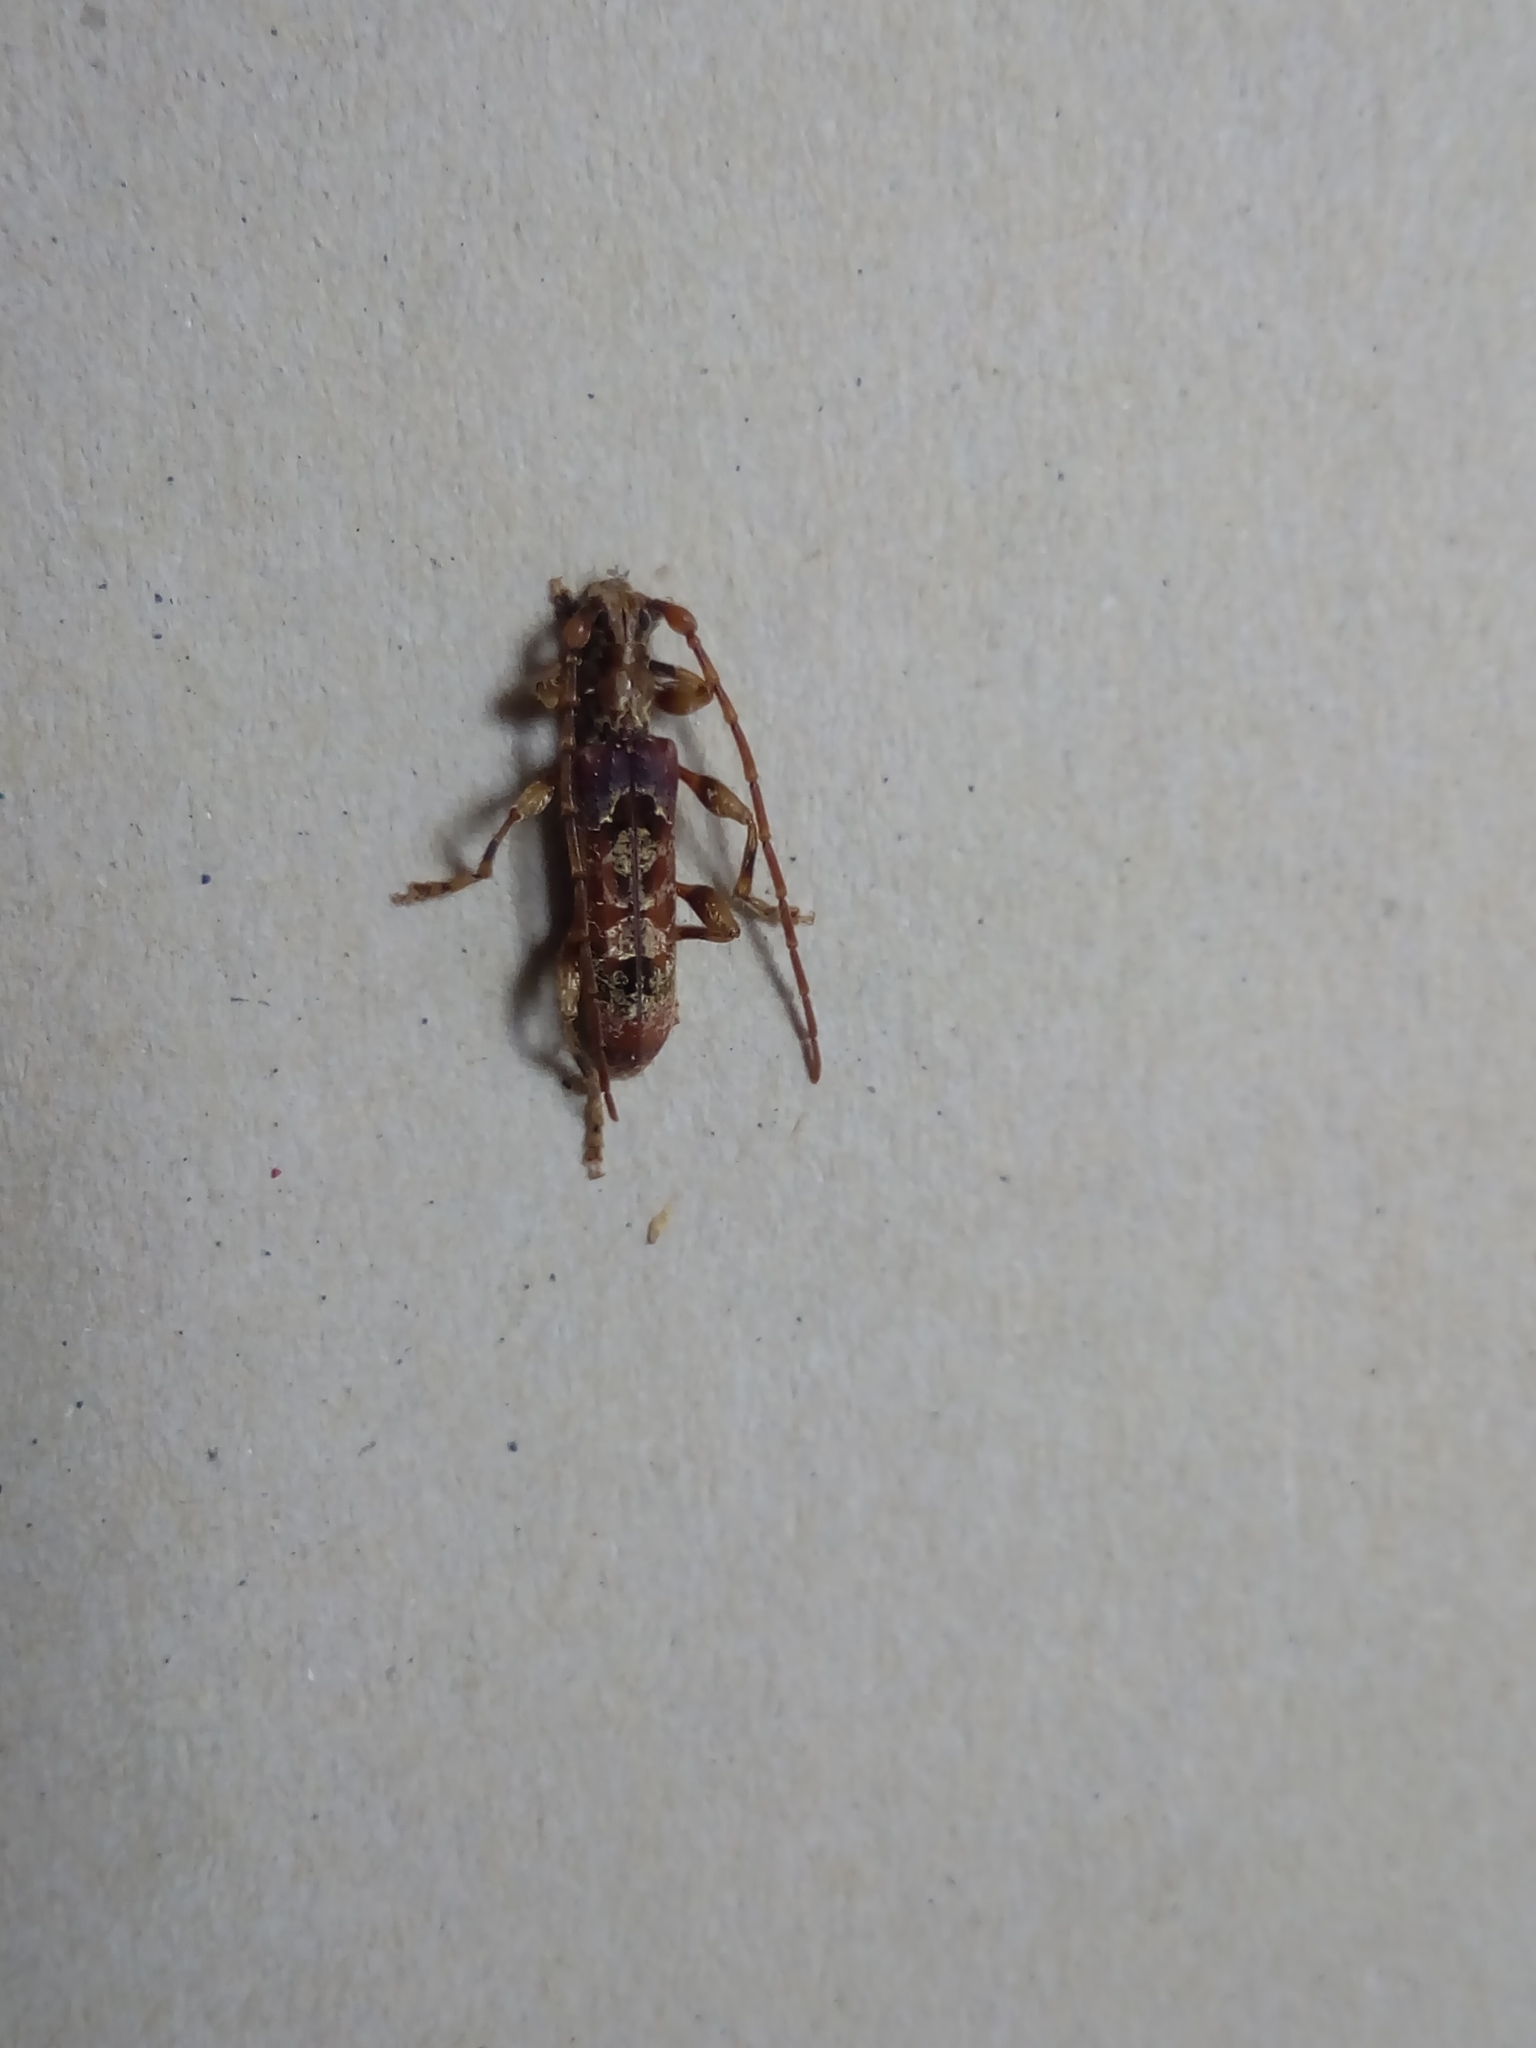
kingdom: Animalia
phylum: Arthropoda
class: Insecta
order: Coleoptera
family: Cerambycidae
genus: Tessaromma
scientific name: Tessaromma undatum
